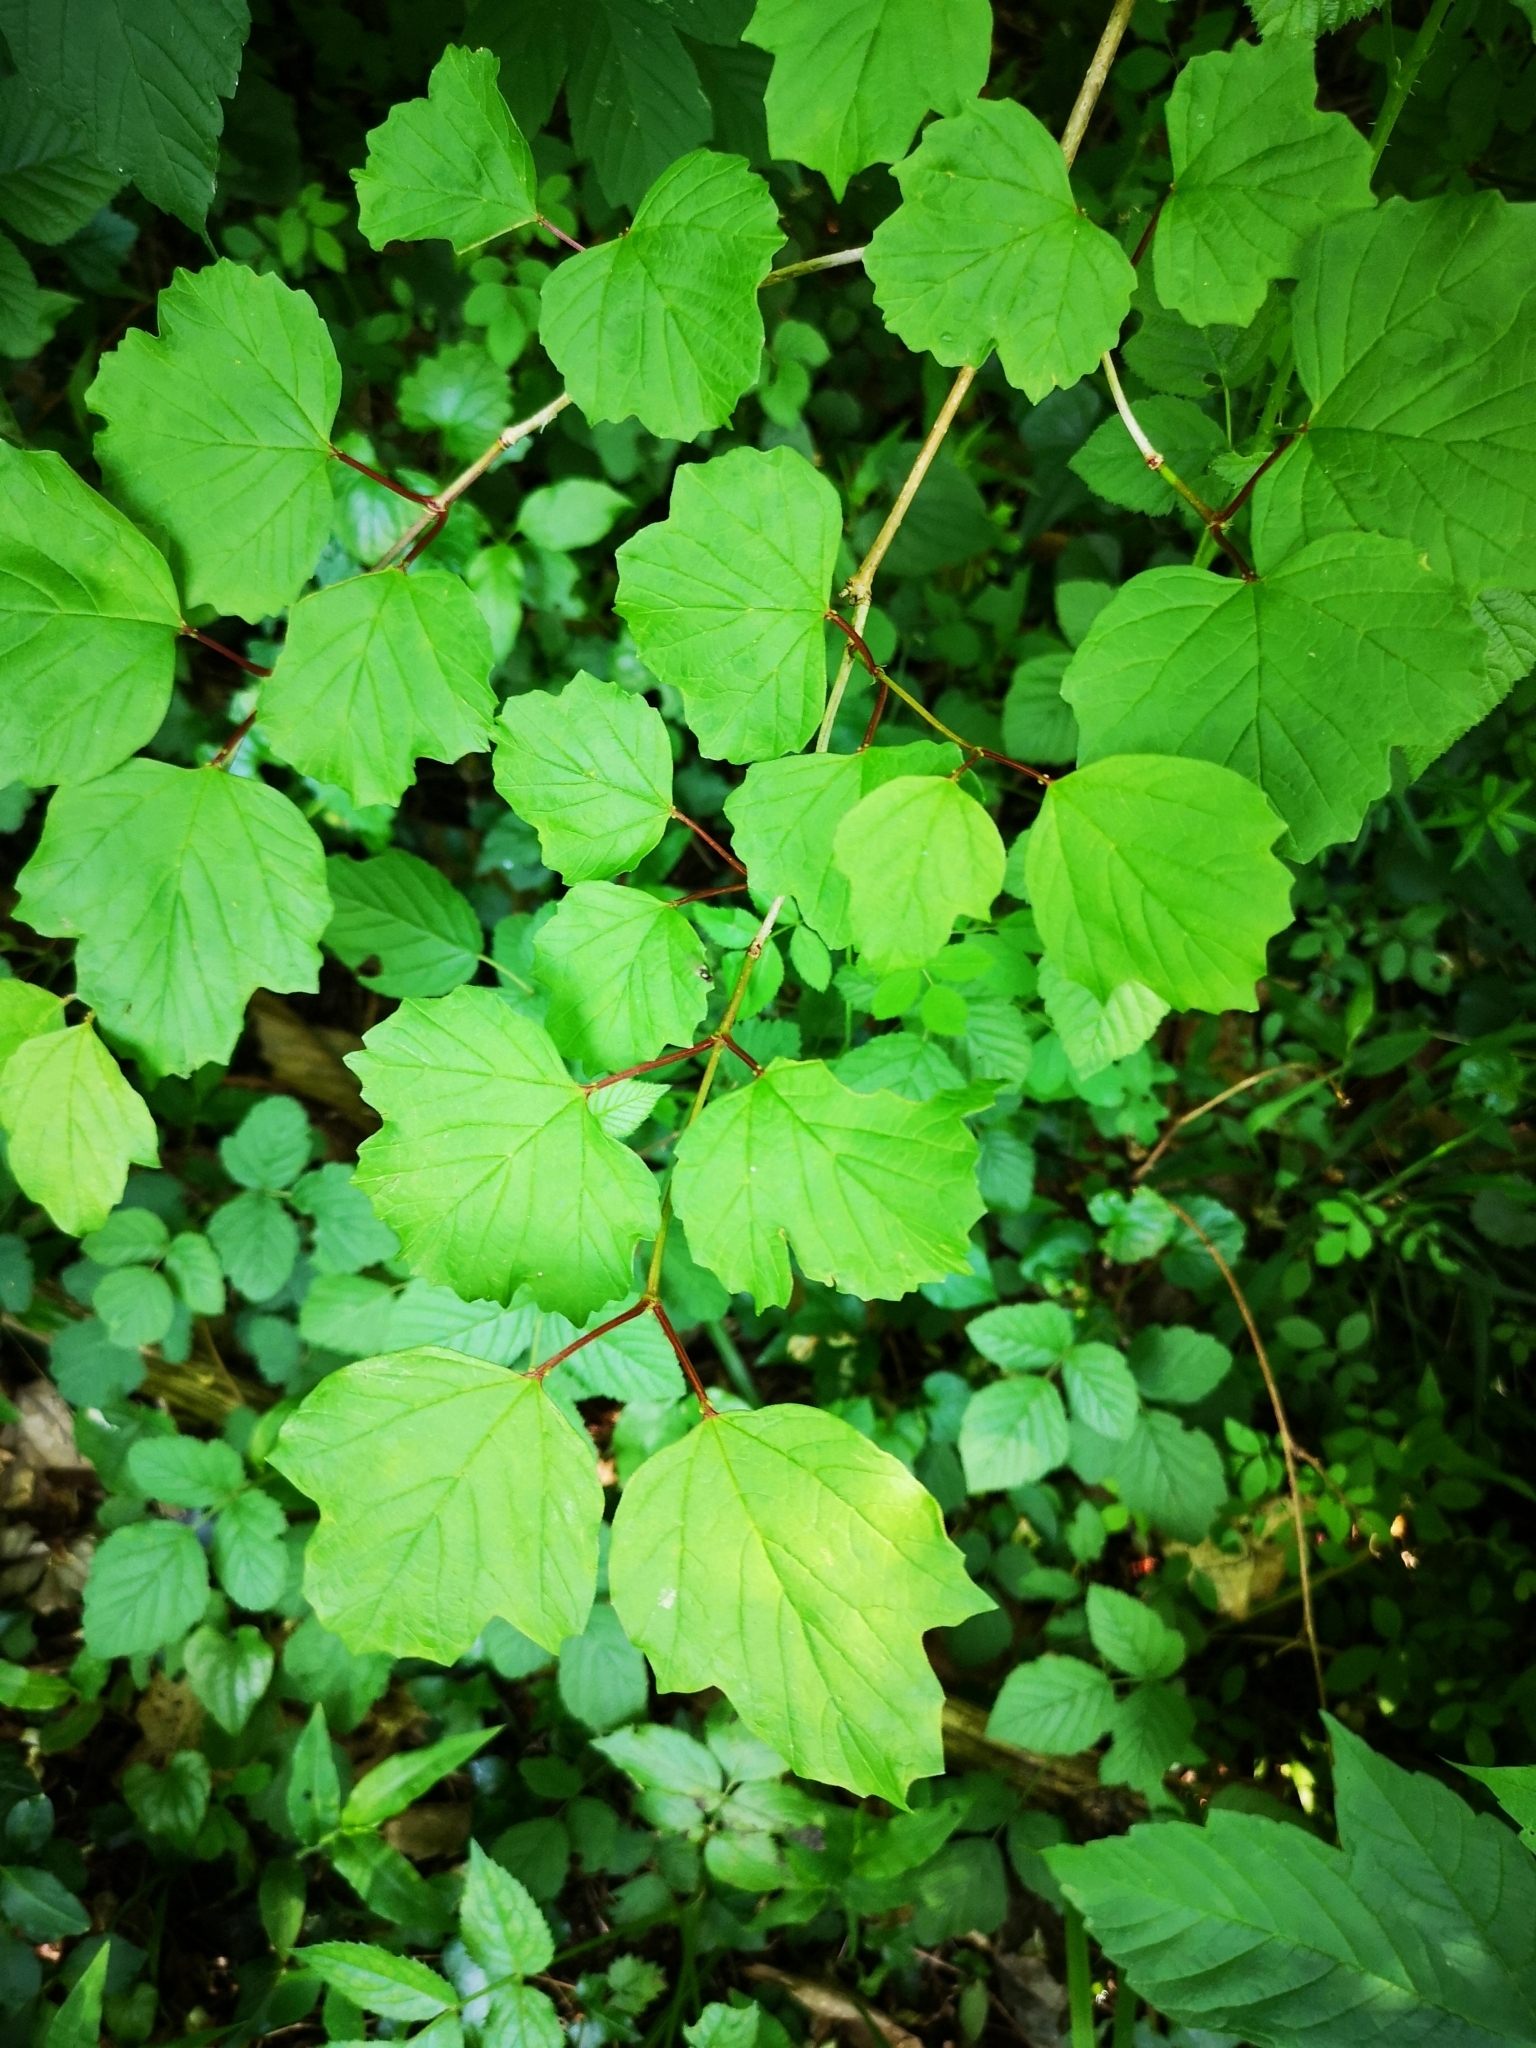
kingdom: Plantae
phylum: Tracheophyta
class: Magnoliopsida
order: Dipsacales
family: Viburnaceae
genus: Viburnum
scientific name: Viburnum opulus
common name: Guelder-rose
